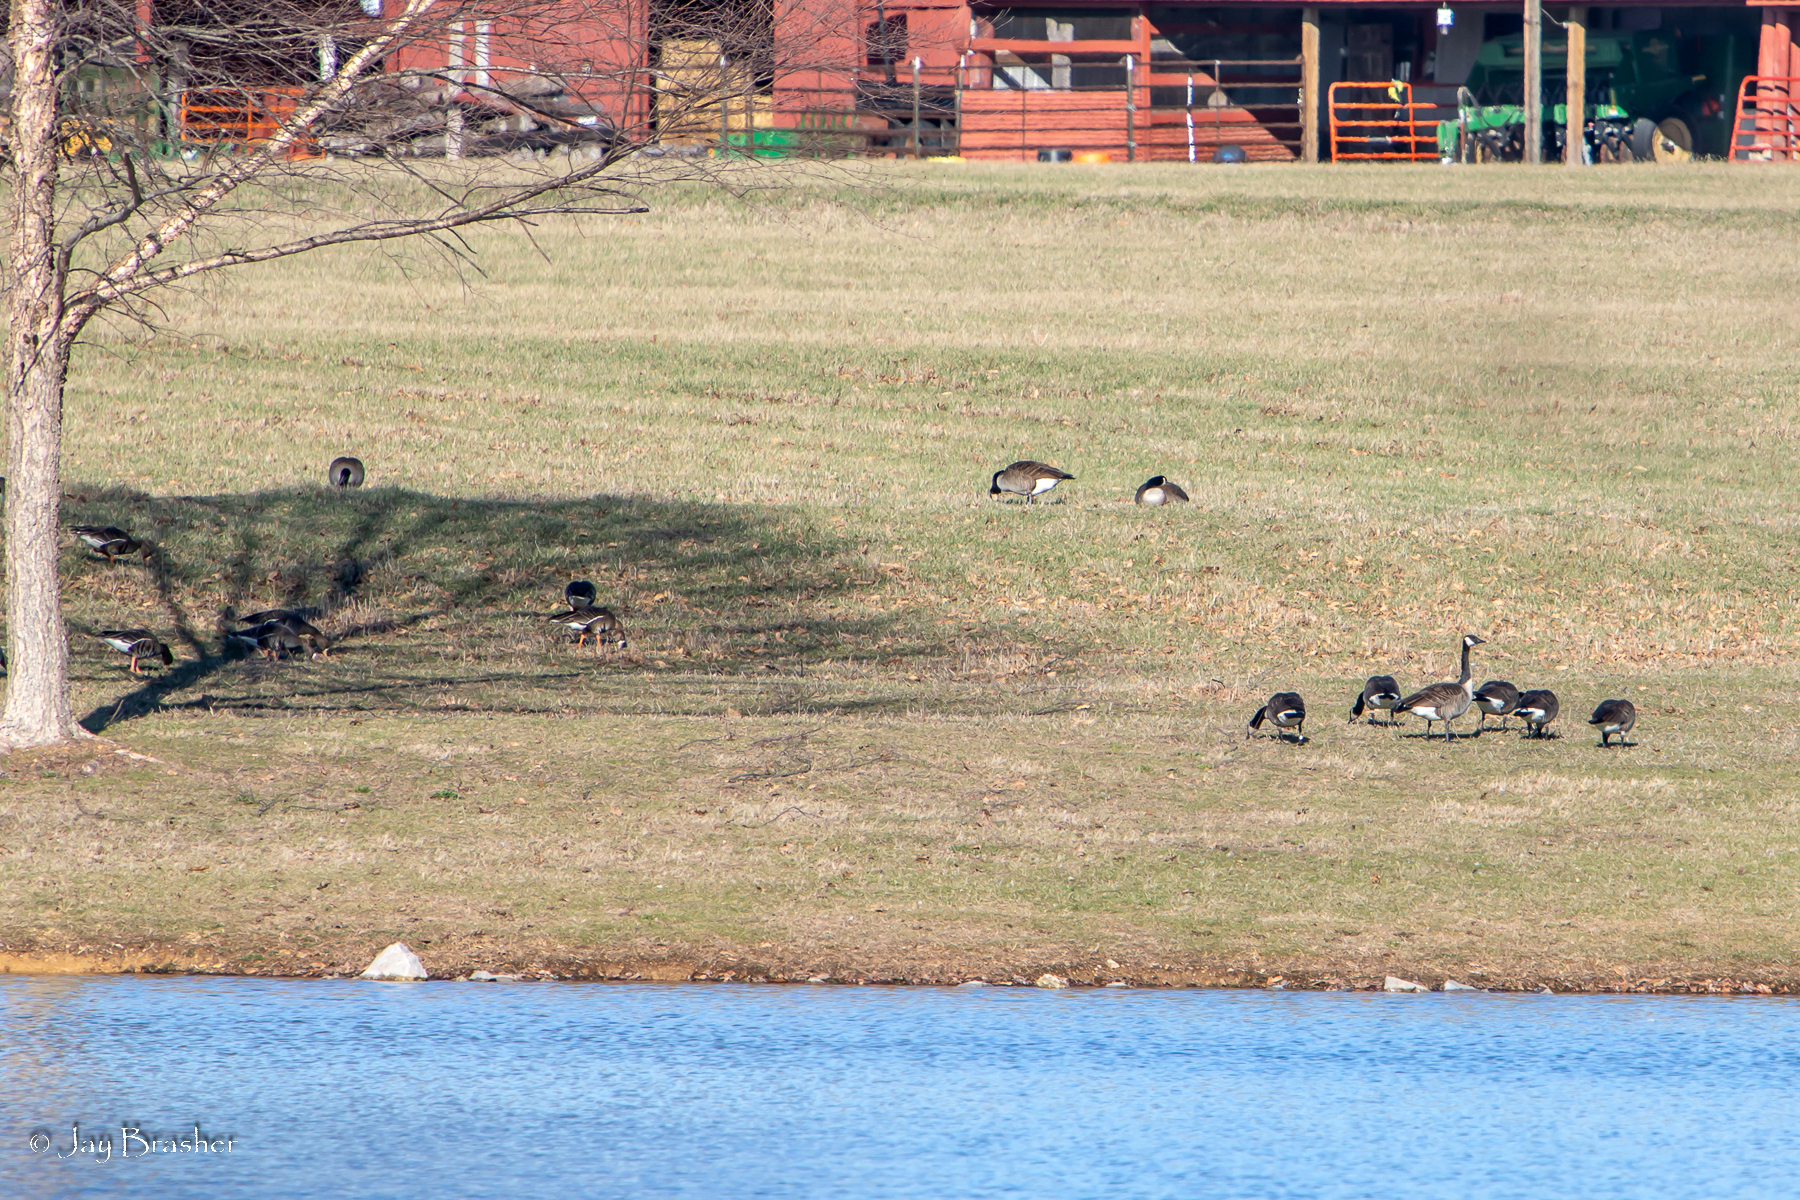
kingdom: Animalia
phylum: Chordata
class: Aves
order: Anseriformes
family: Anatidae
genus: Branta
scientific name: Branta canadensis
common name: Canada goose
